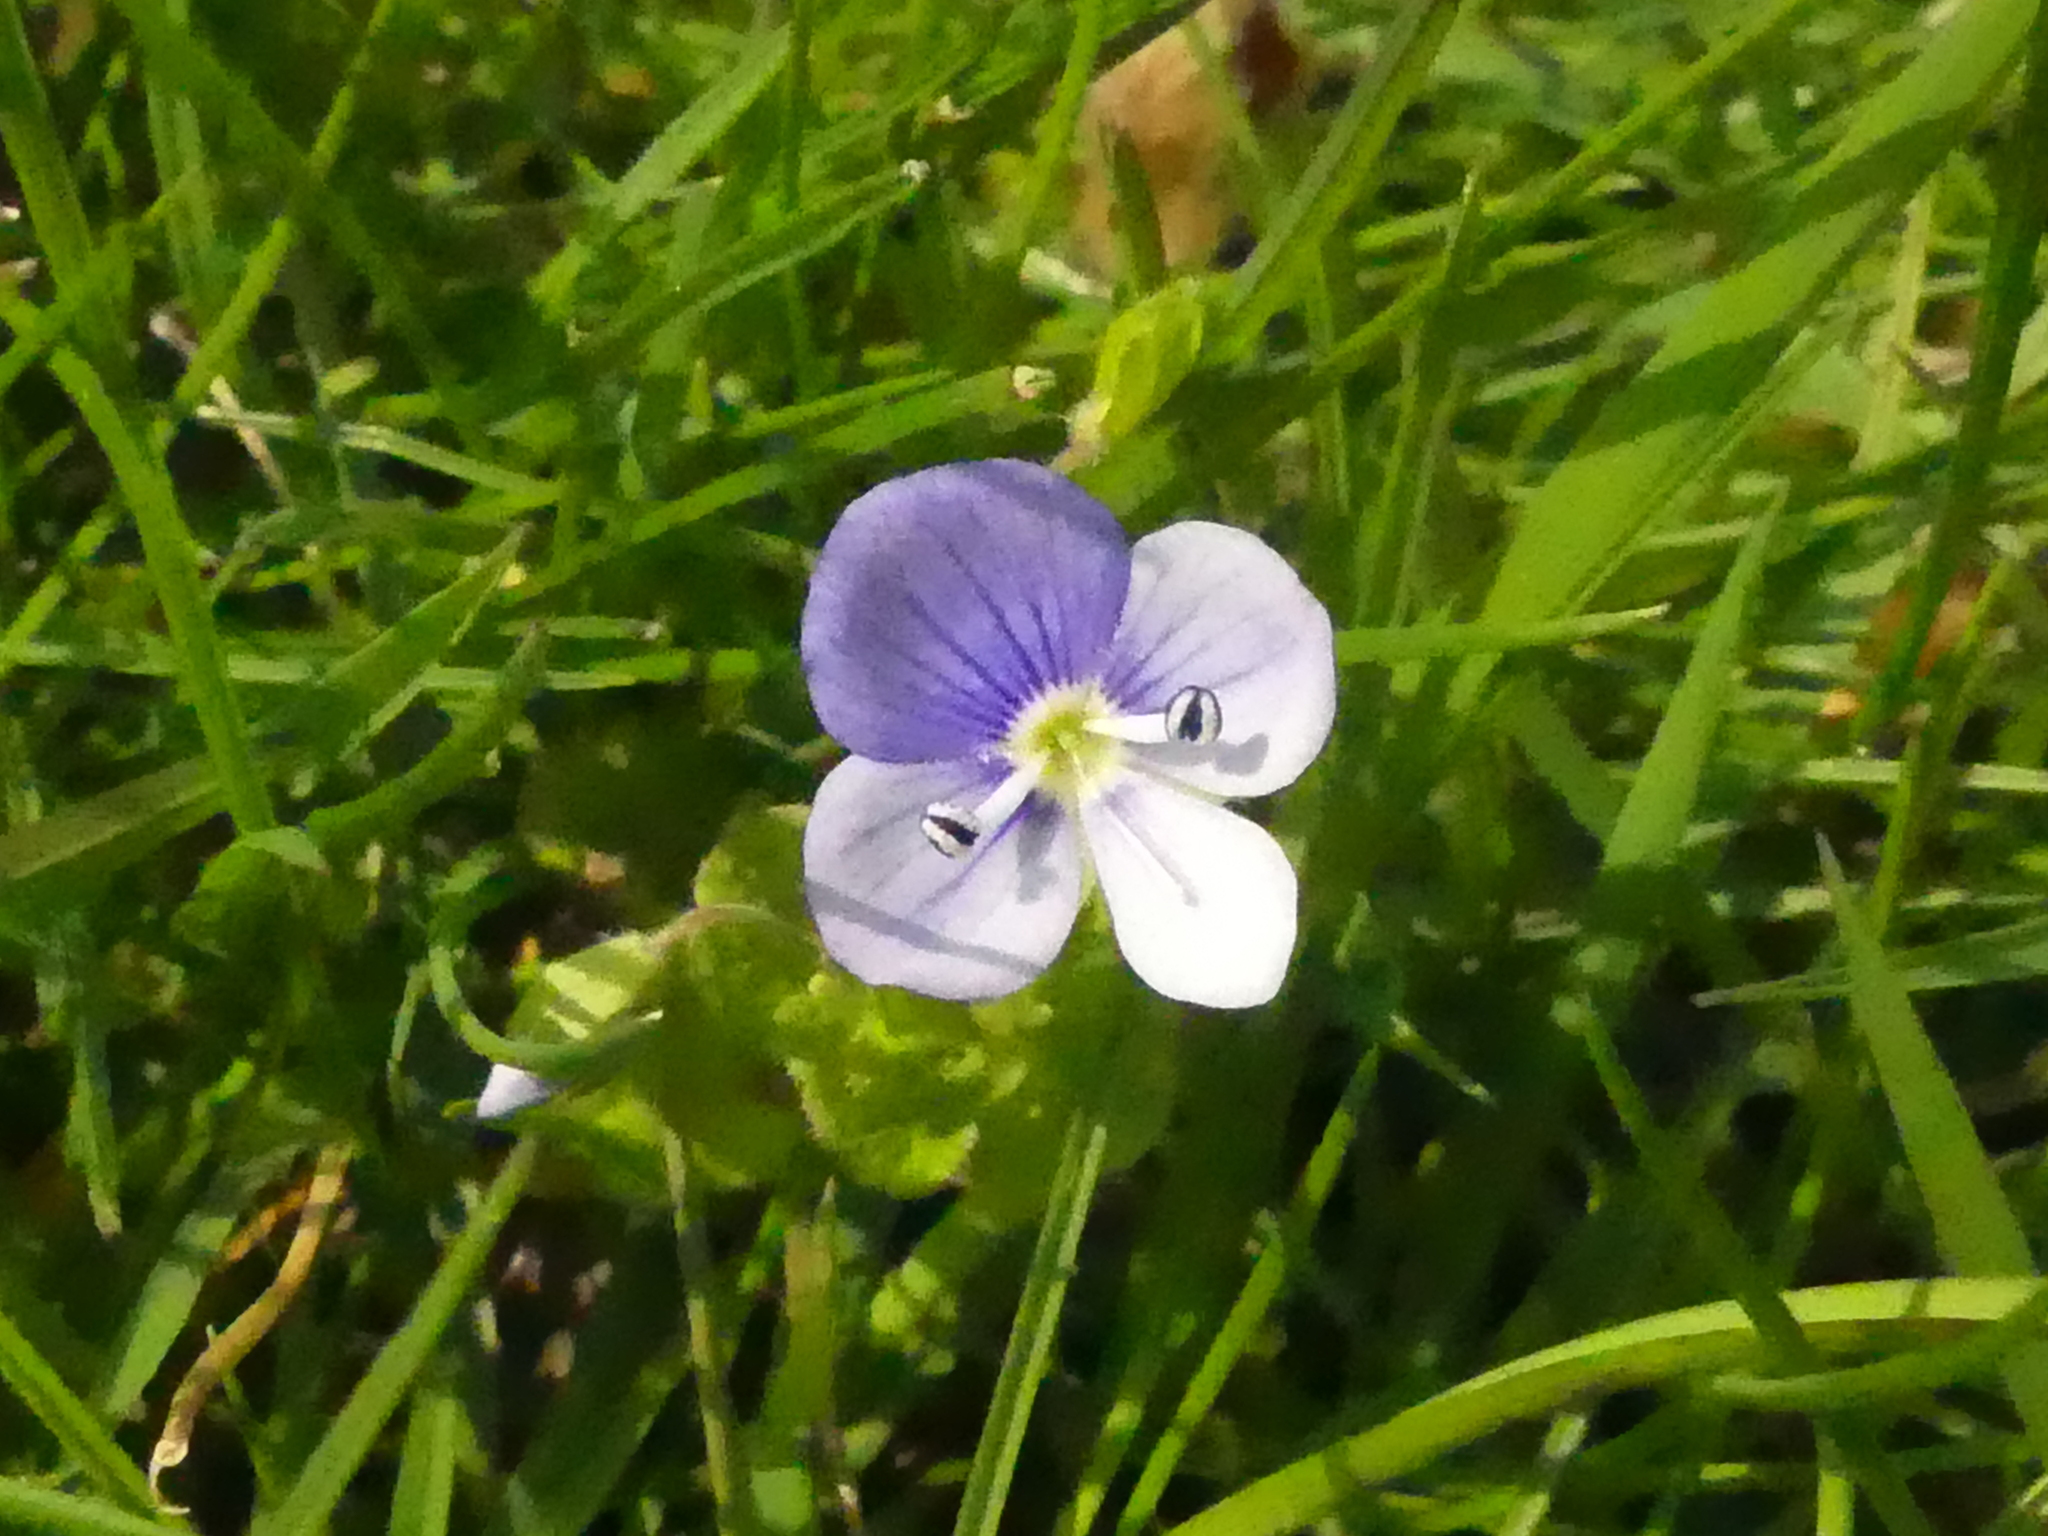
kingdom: Plantae
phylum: Tracheophyta
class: Magnoliopsida
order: Lamiales
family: Plantaginaceae
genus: Veronica
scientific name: Veronica filiformis
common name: Slender speedwell
